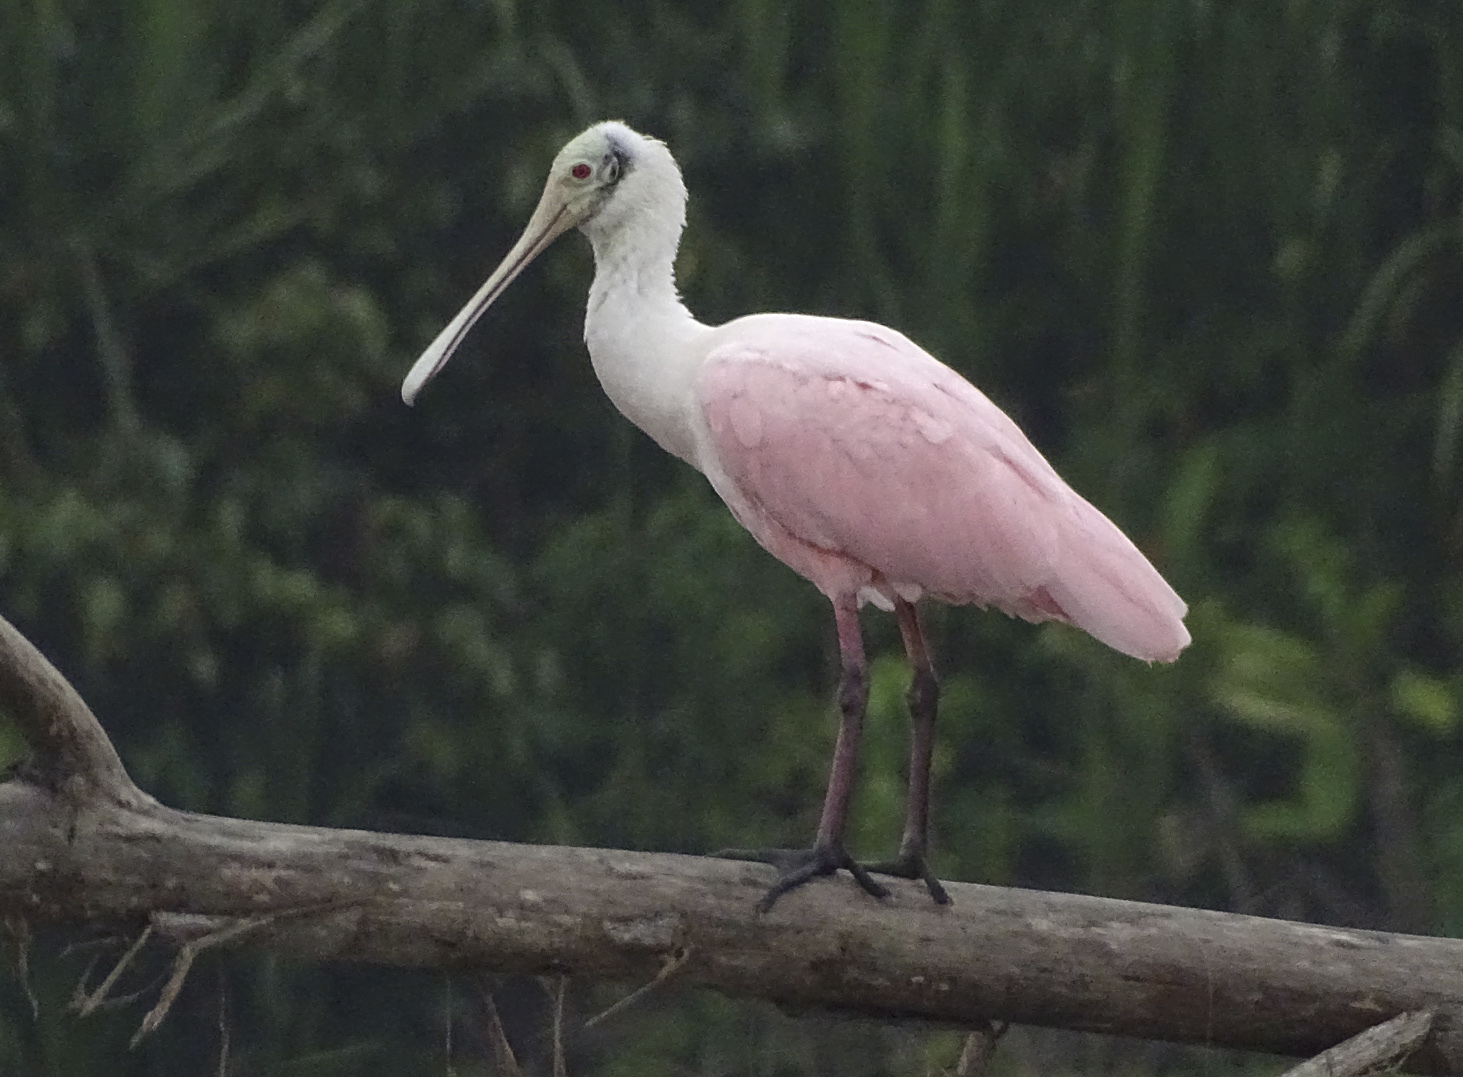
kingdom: Animalia
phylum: Chordata
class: Aves
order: Pelecaniformes
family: Threskiornithidae
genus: Platalea
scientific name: Platalea ajaja
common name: Roseate spoonbill
